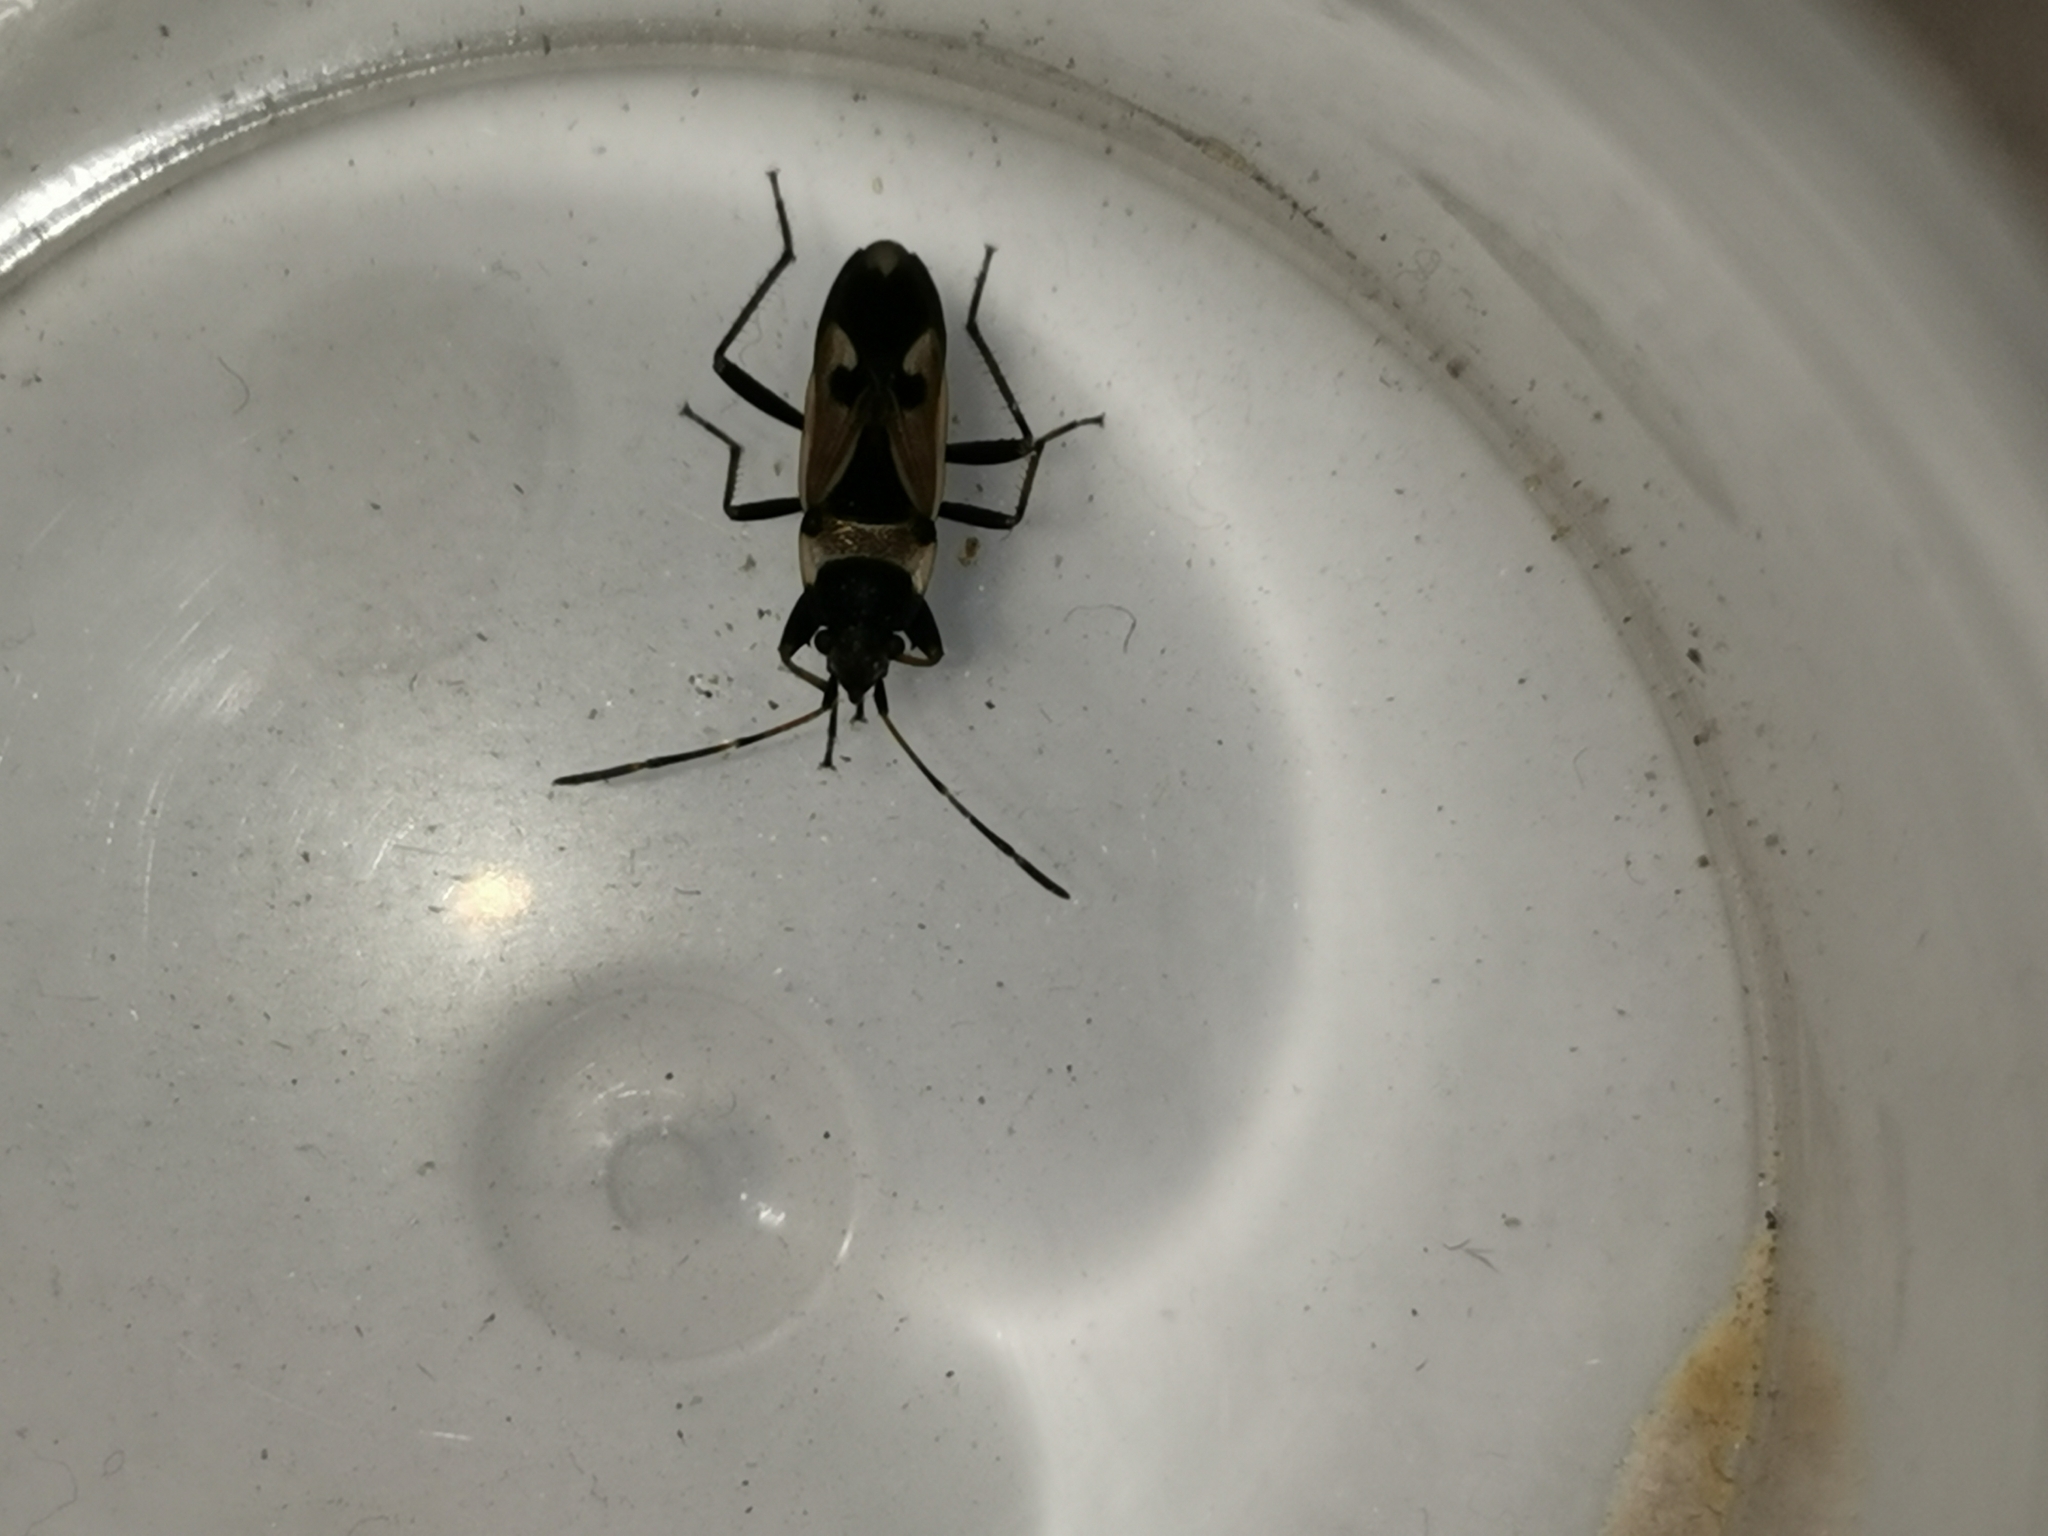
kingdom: Animalia
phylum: Arthropoda
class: Insecta
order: Hemiptera
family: Rhyparochromidae
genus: Raglius
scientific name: Raglius confusus
